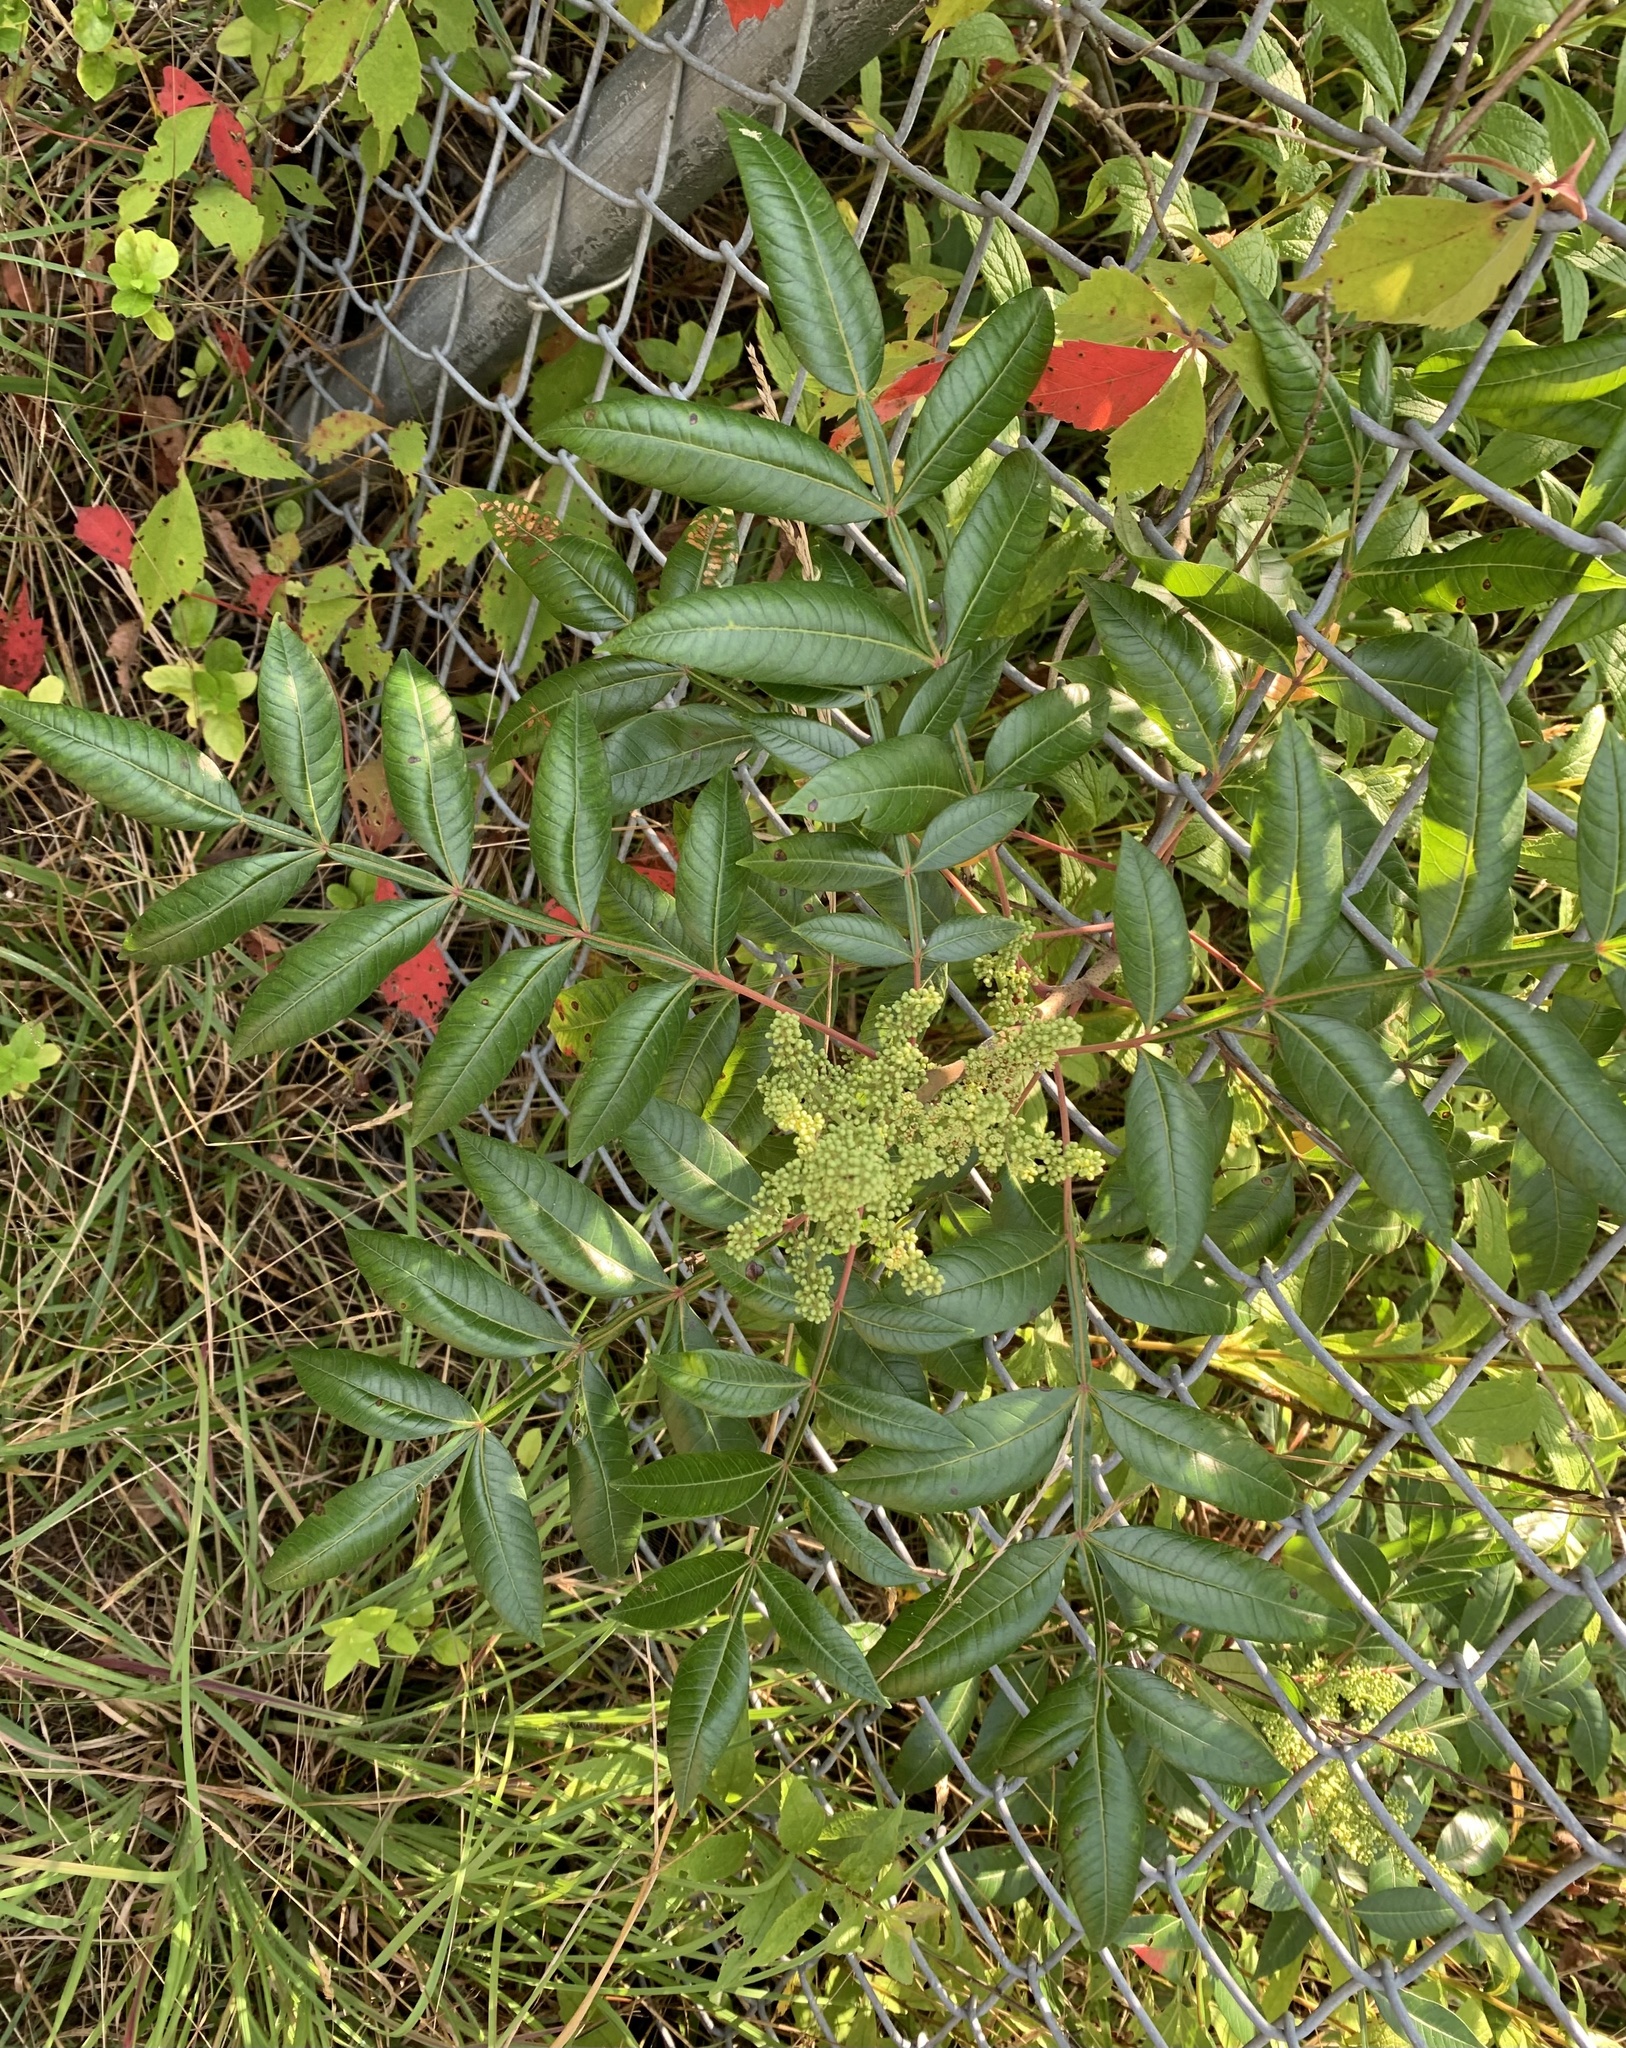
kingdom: Plantae
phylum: Tracheophyta
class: Magnoliopsida
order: Sapindales
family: Anacardiaceae
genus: Rhus
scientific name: Rhus copallina
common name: Shining sumac
